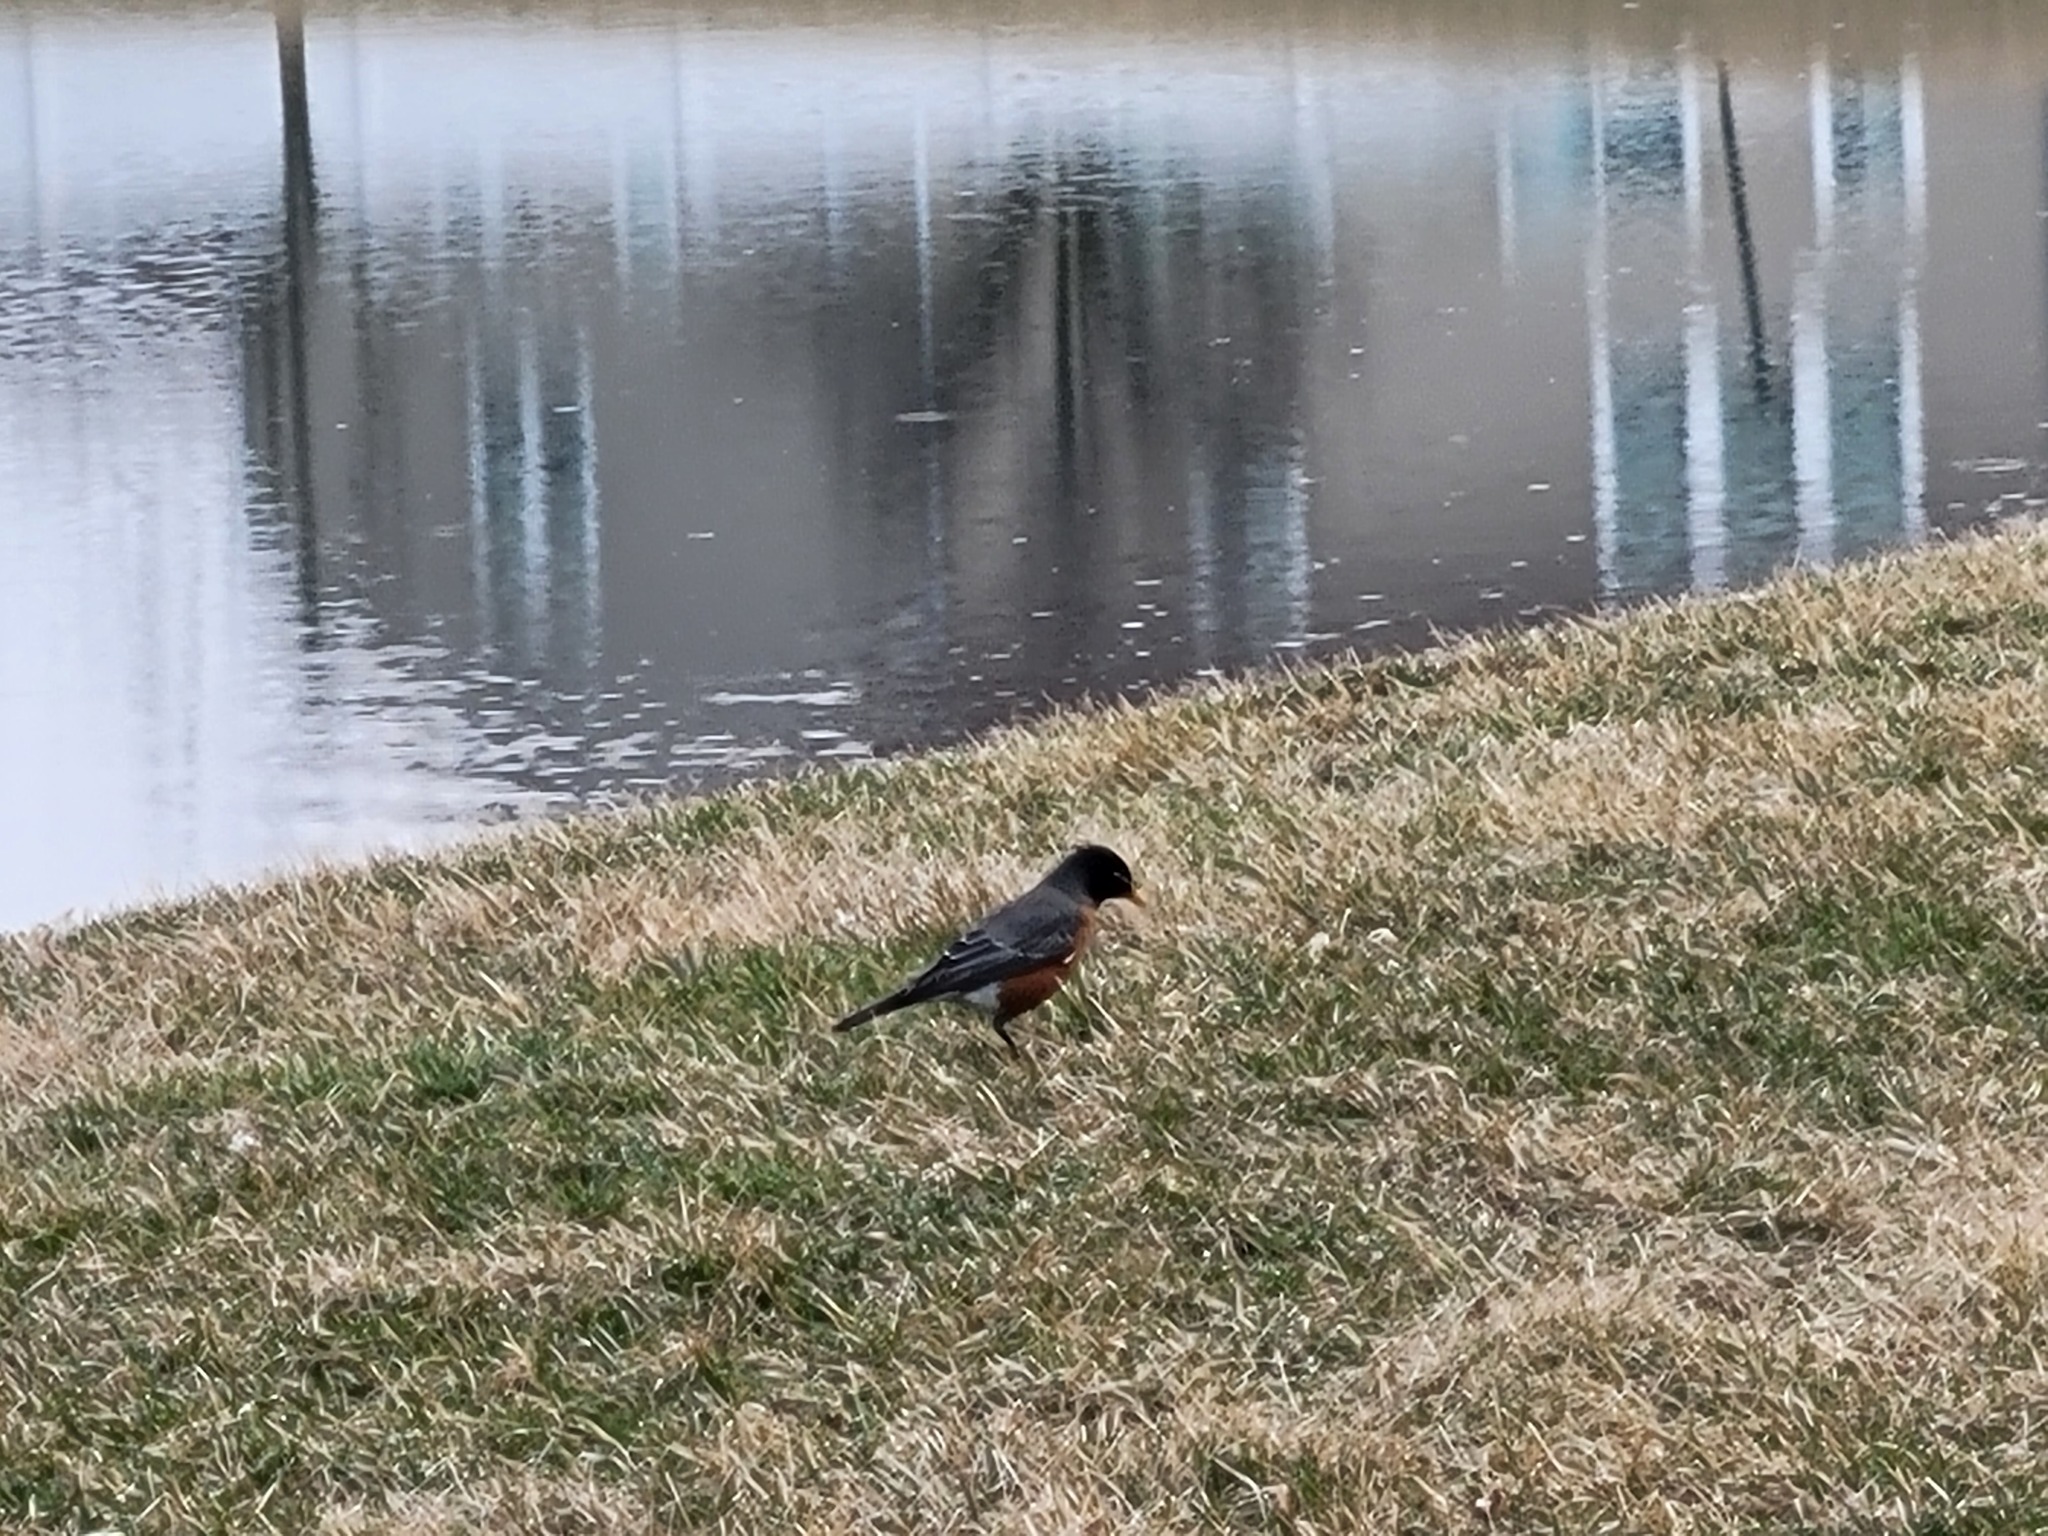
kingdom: Animalia
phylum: Chordata
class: Aves
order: Passeriformes
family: Turdidae
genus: Turdus
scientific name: Turdus migratorius
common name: American robin
